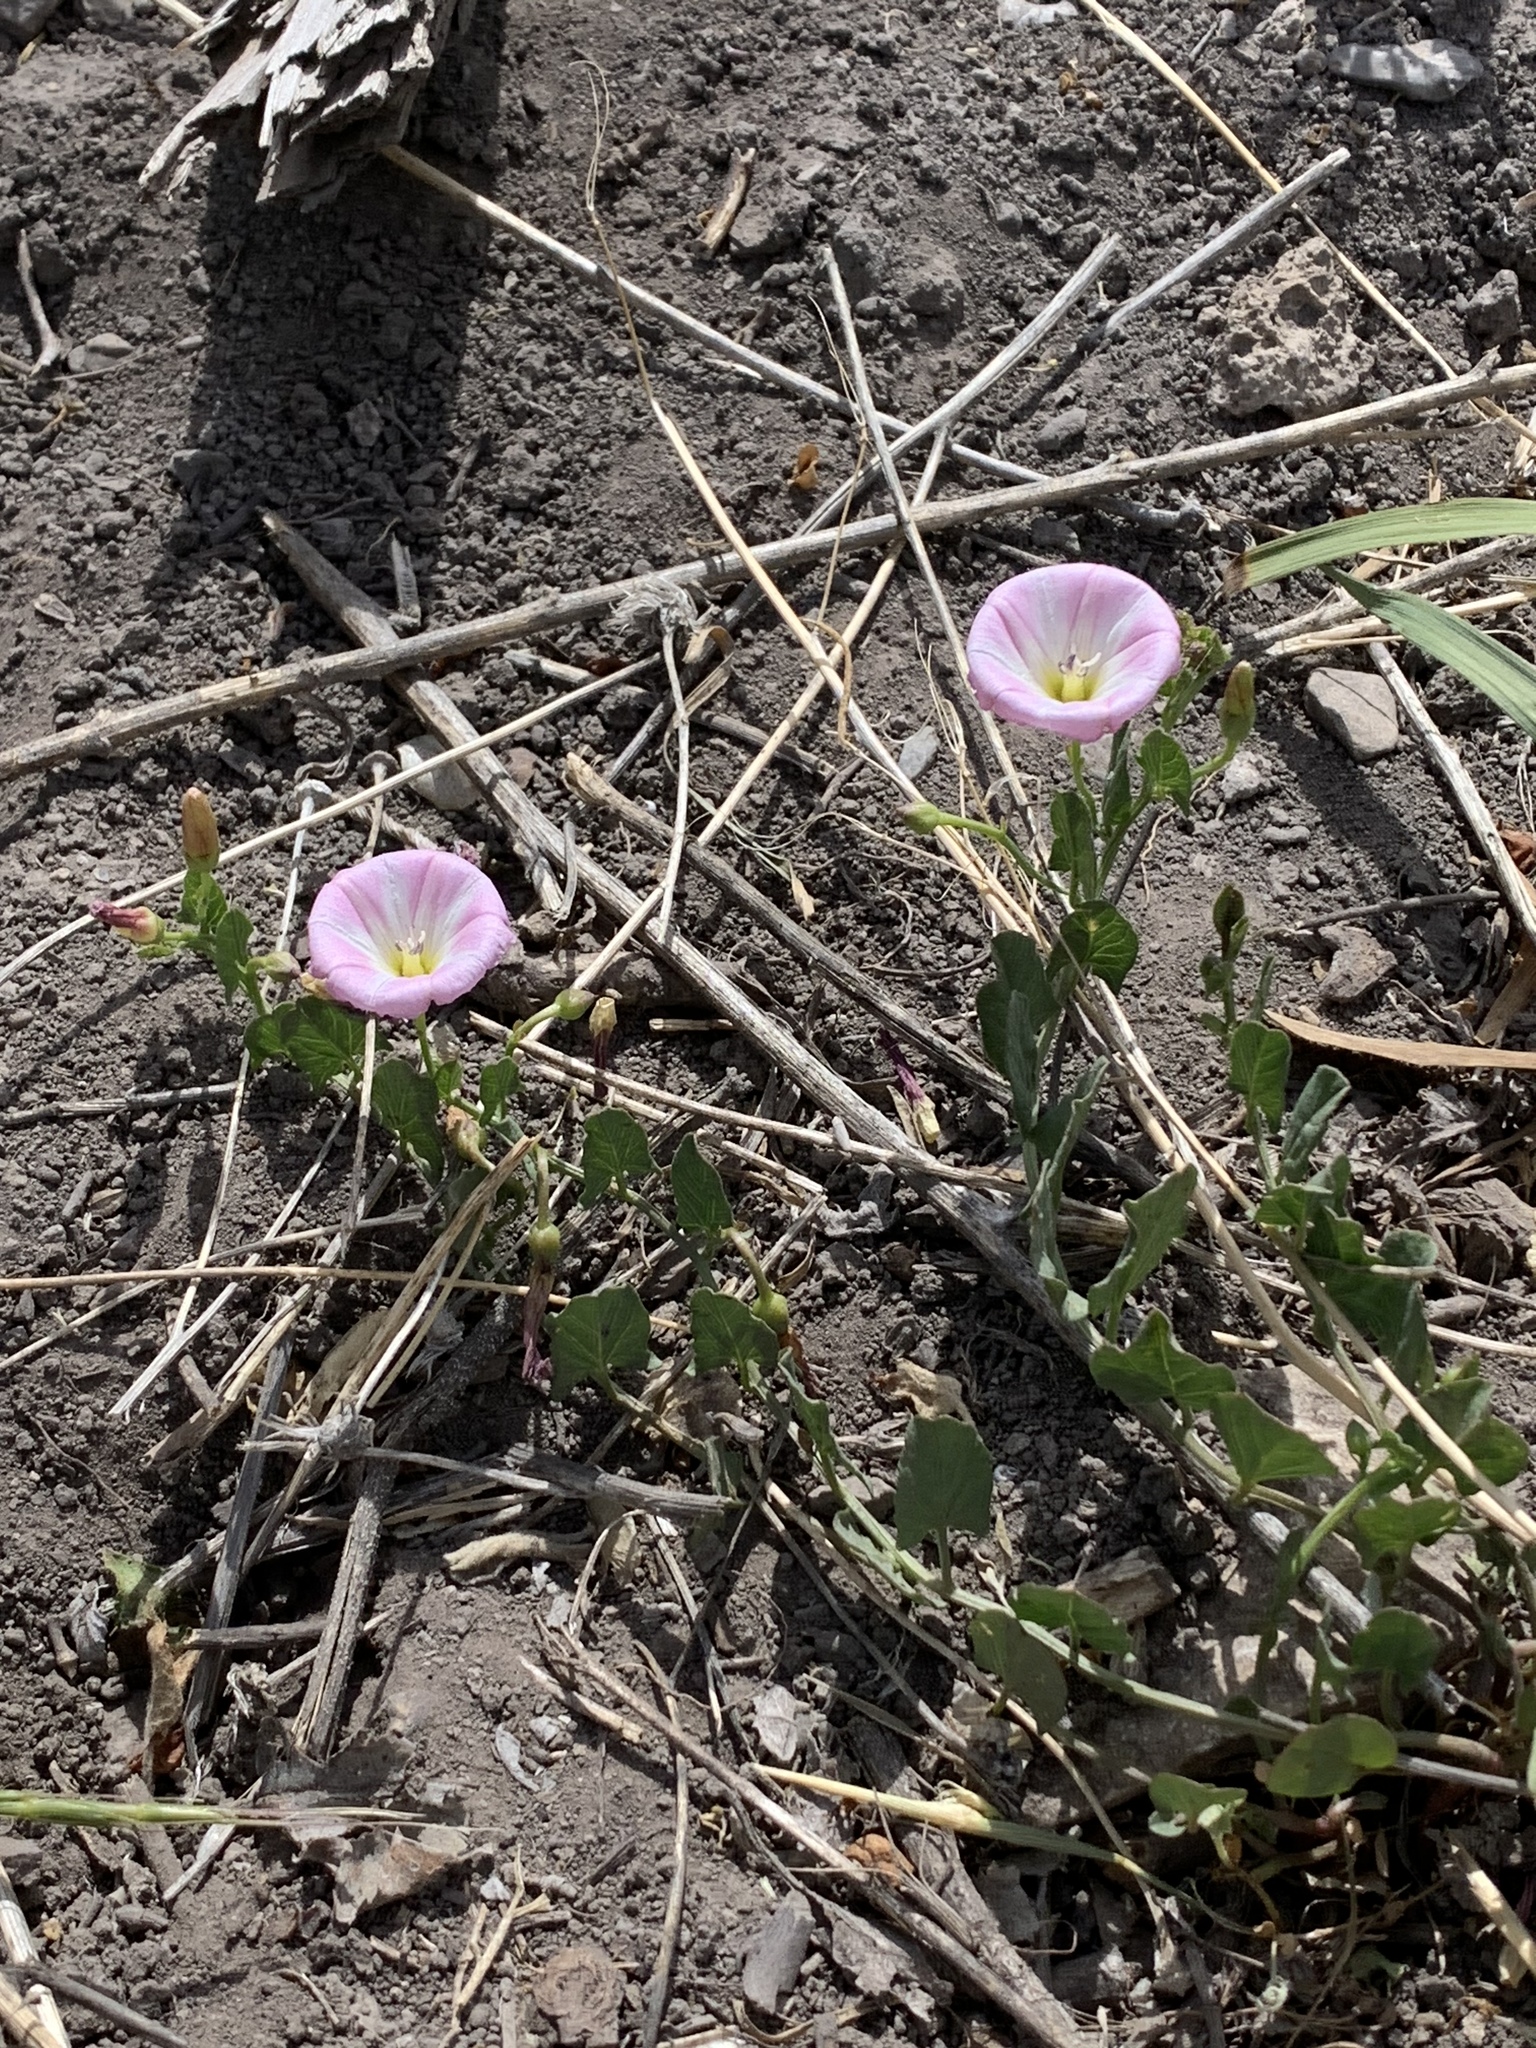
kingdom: Plantae
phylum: Tracheophyta
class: Magnoliopsida
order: Solanales
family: Convolvulaceae
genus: Convolvulus
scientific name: Convolvulus arvensis
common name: Field bindweed
